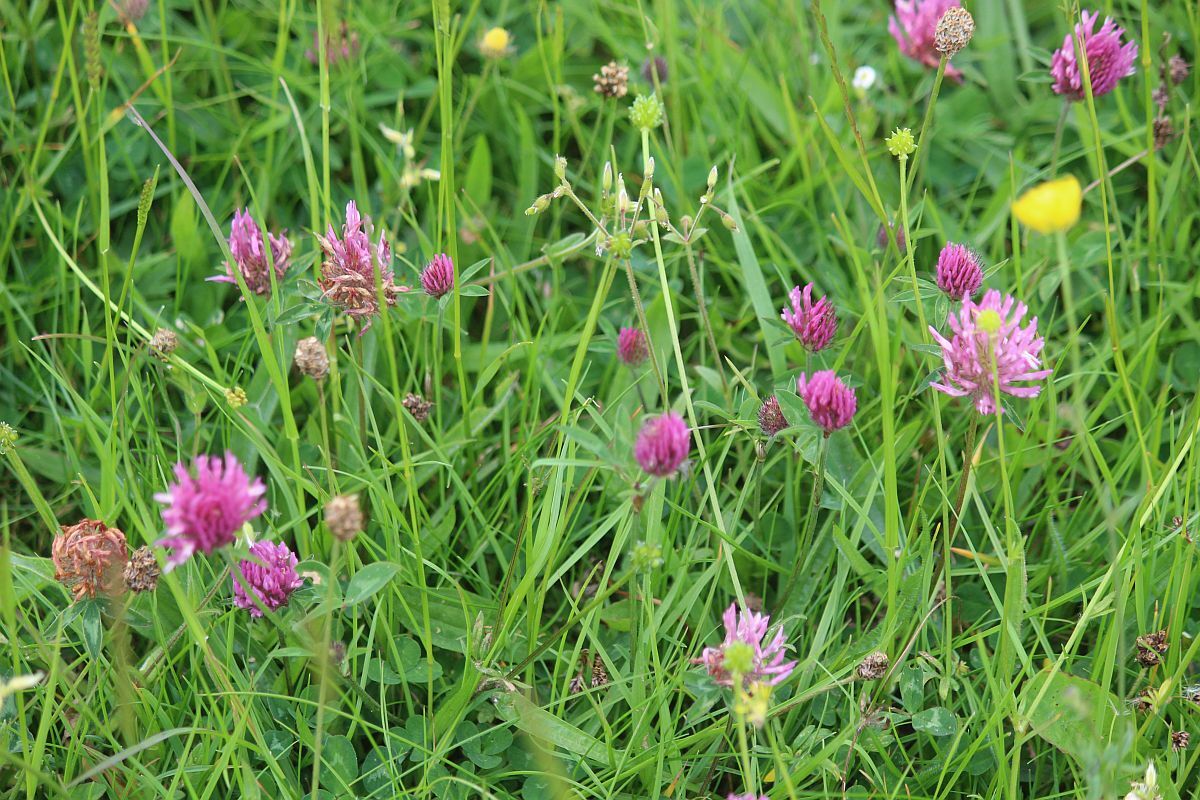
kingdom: Plantae
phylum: Tracheophyta
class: Magnoliopsida
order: Fabales
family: Fabaceae
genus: Trifolium
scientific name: Trifolium pratense
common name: Red clover
